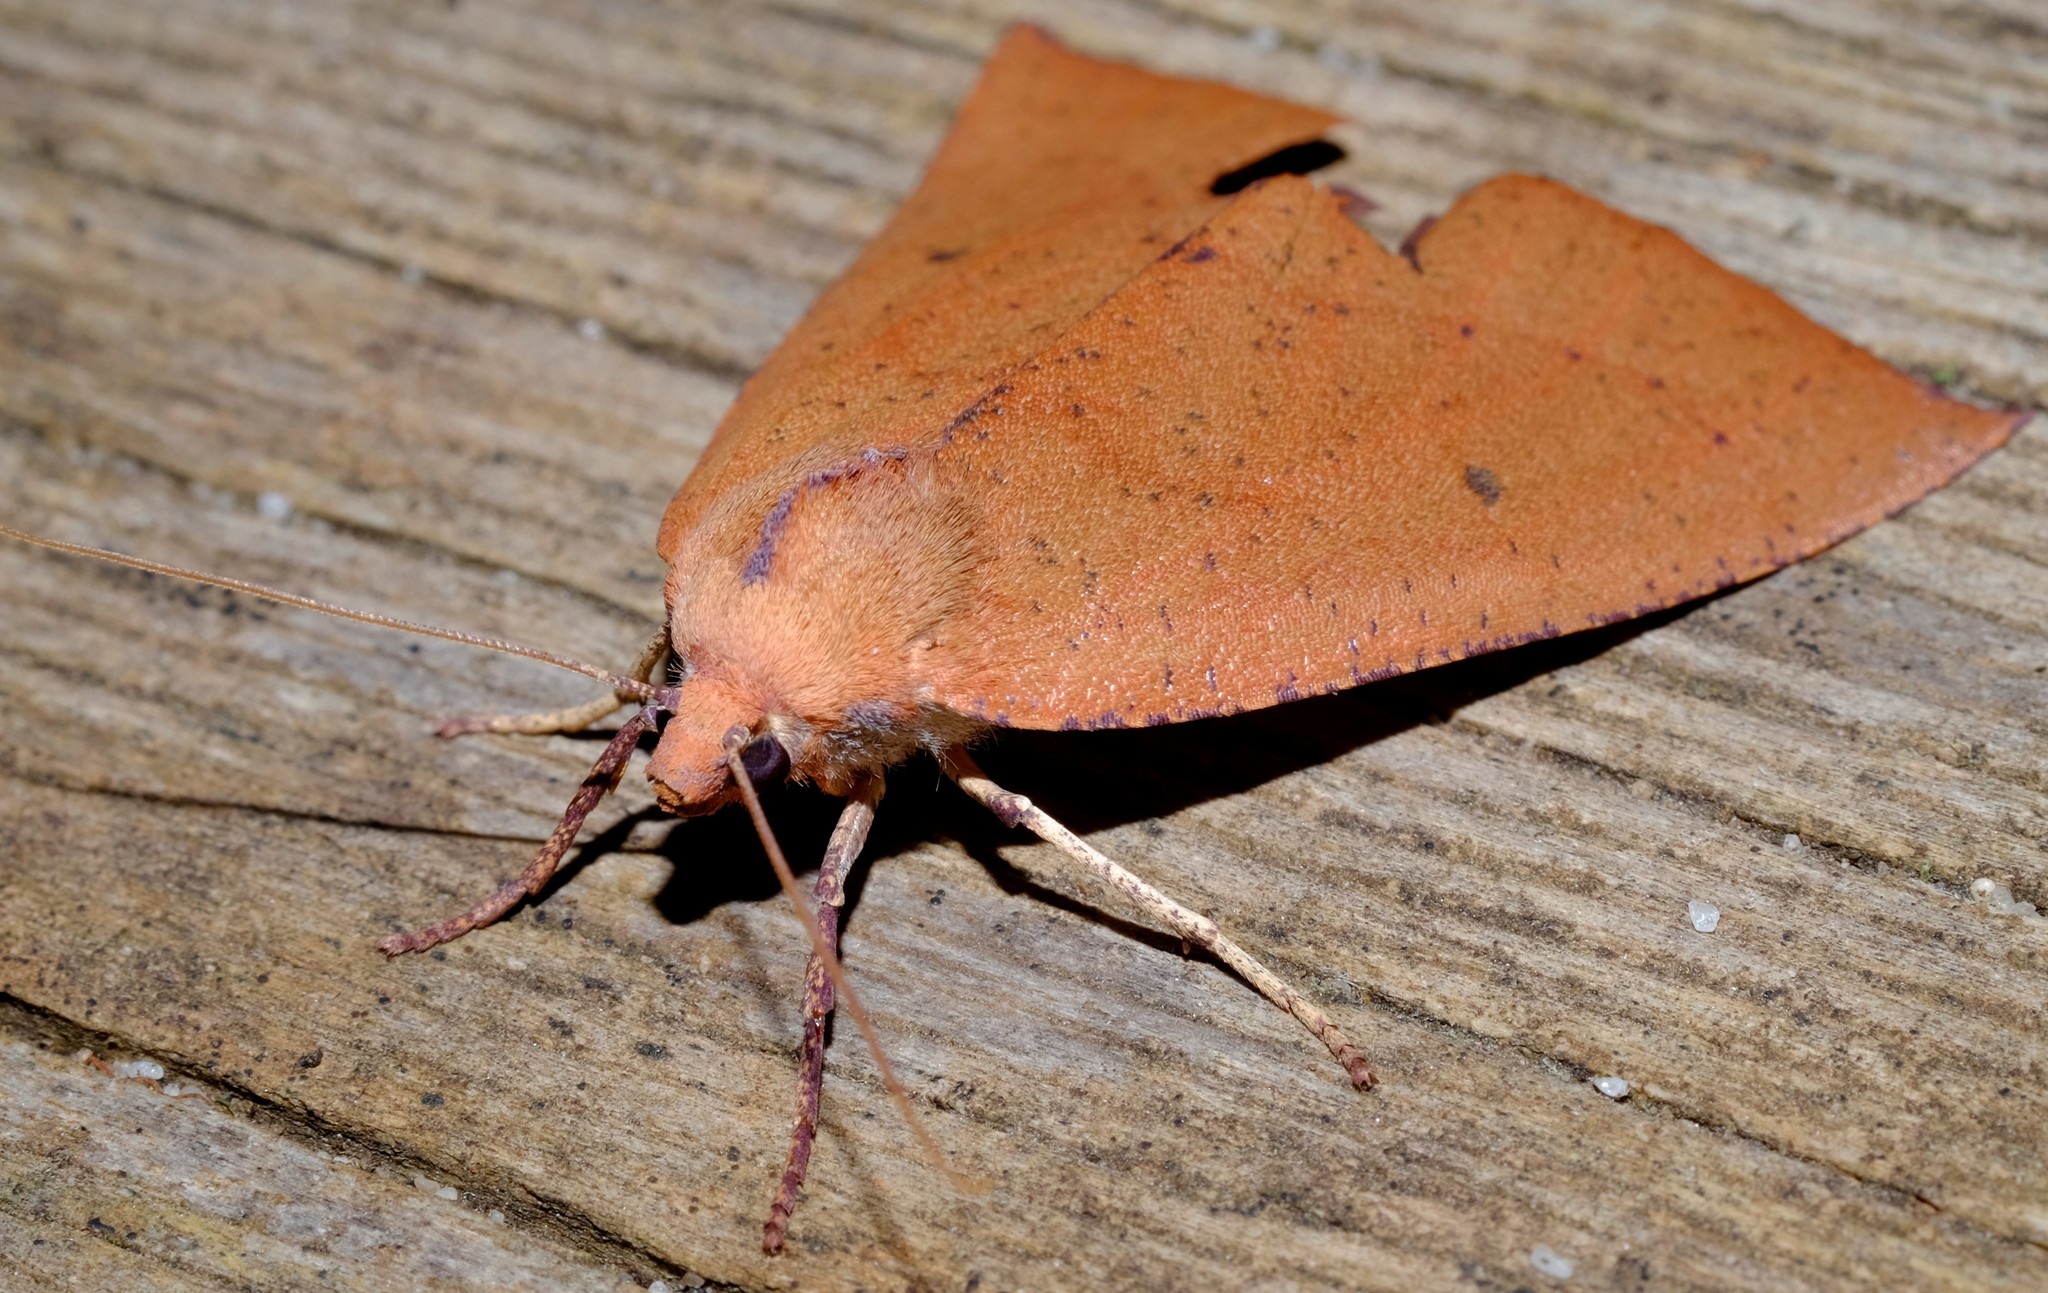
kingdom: Animalia
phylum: Arthropoda
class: Insecta
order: Lepidoptera
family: Geometridae
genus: Fisera
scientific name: Fisera hypoleuca
